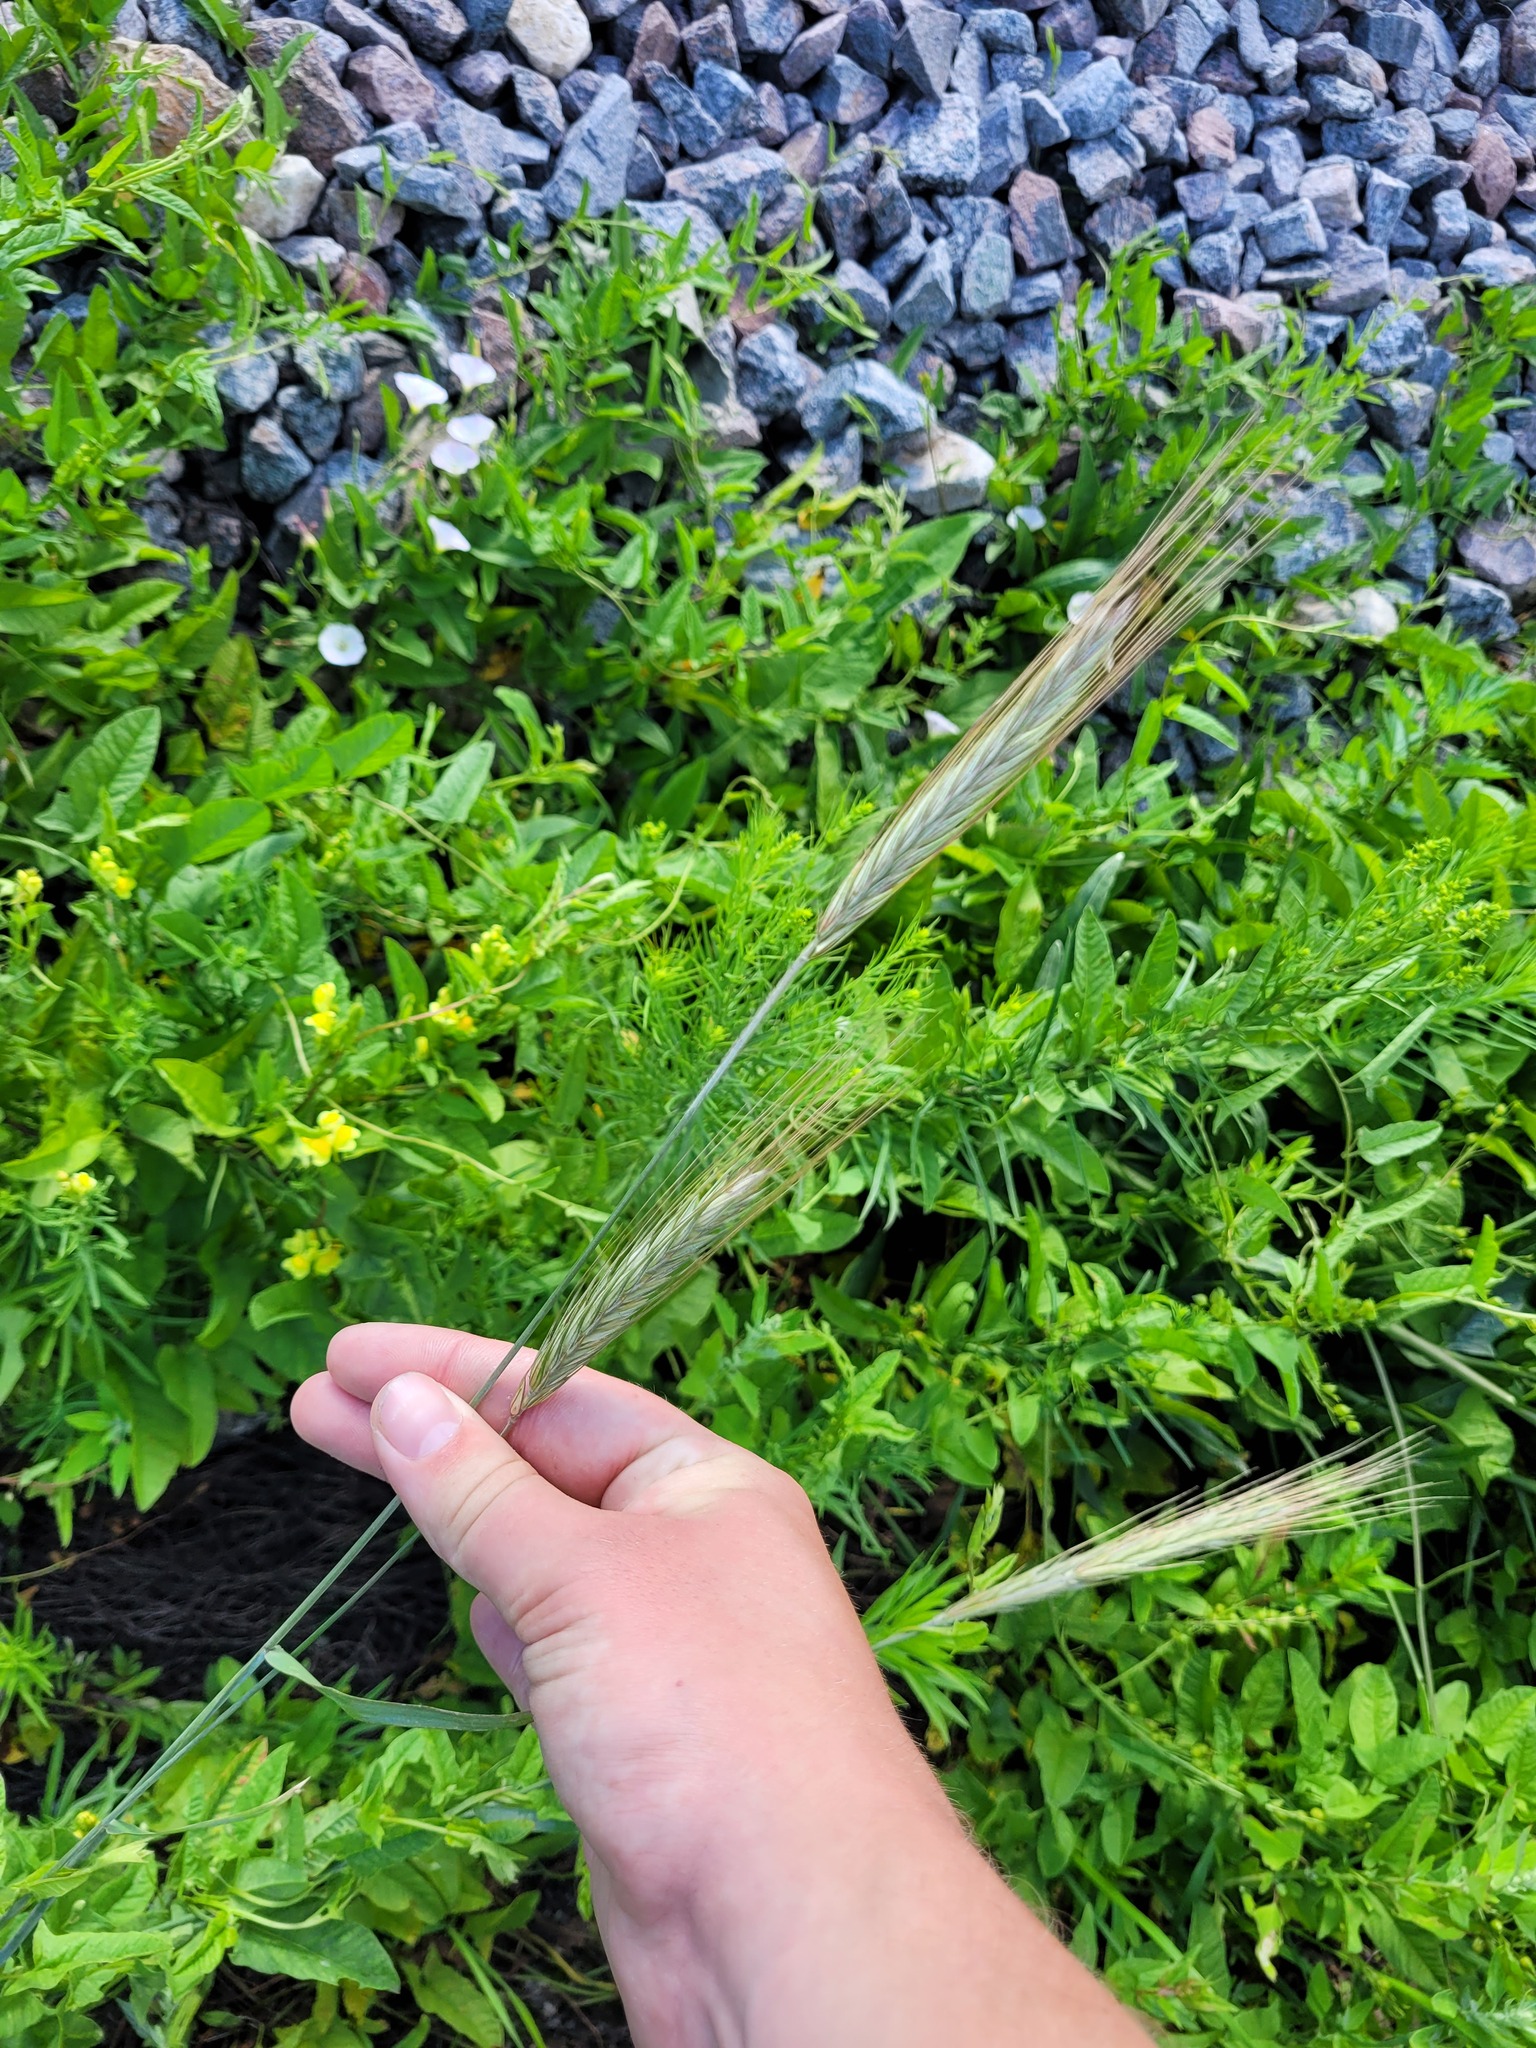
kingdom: Plantae
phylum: Tracheophyta
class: Liliopsida
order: Poales
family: Poaceae
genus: Secale
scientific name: Secale cereale
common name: Rye
